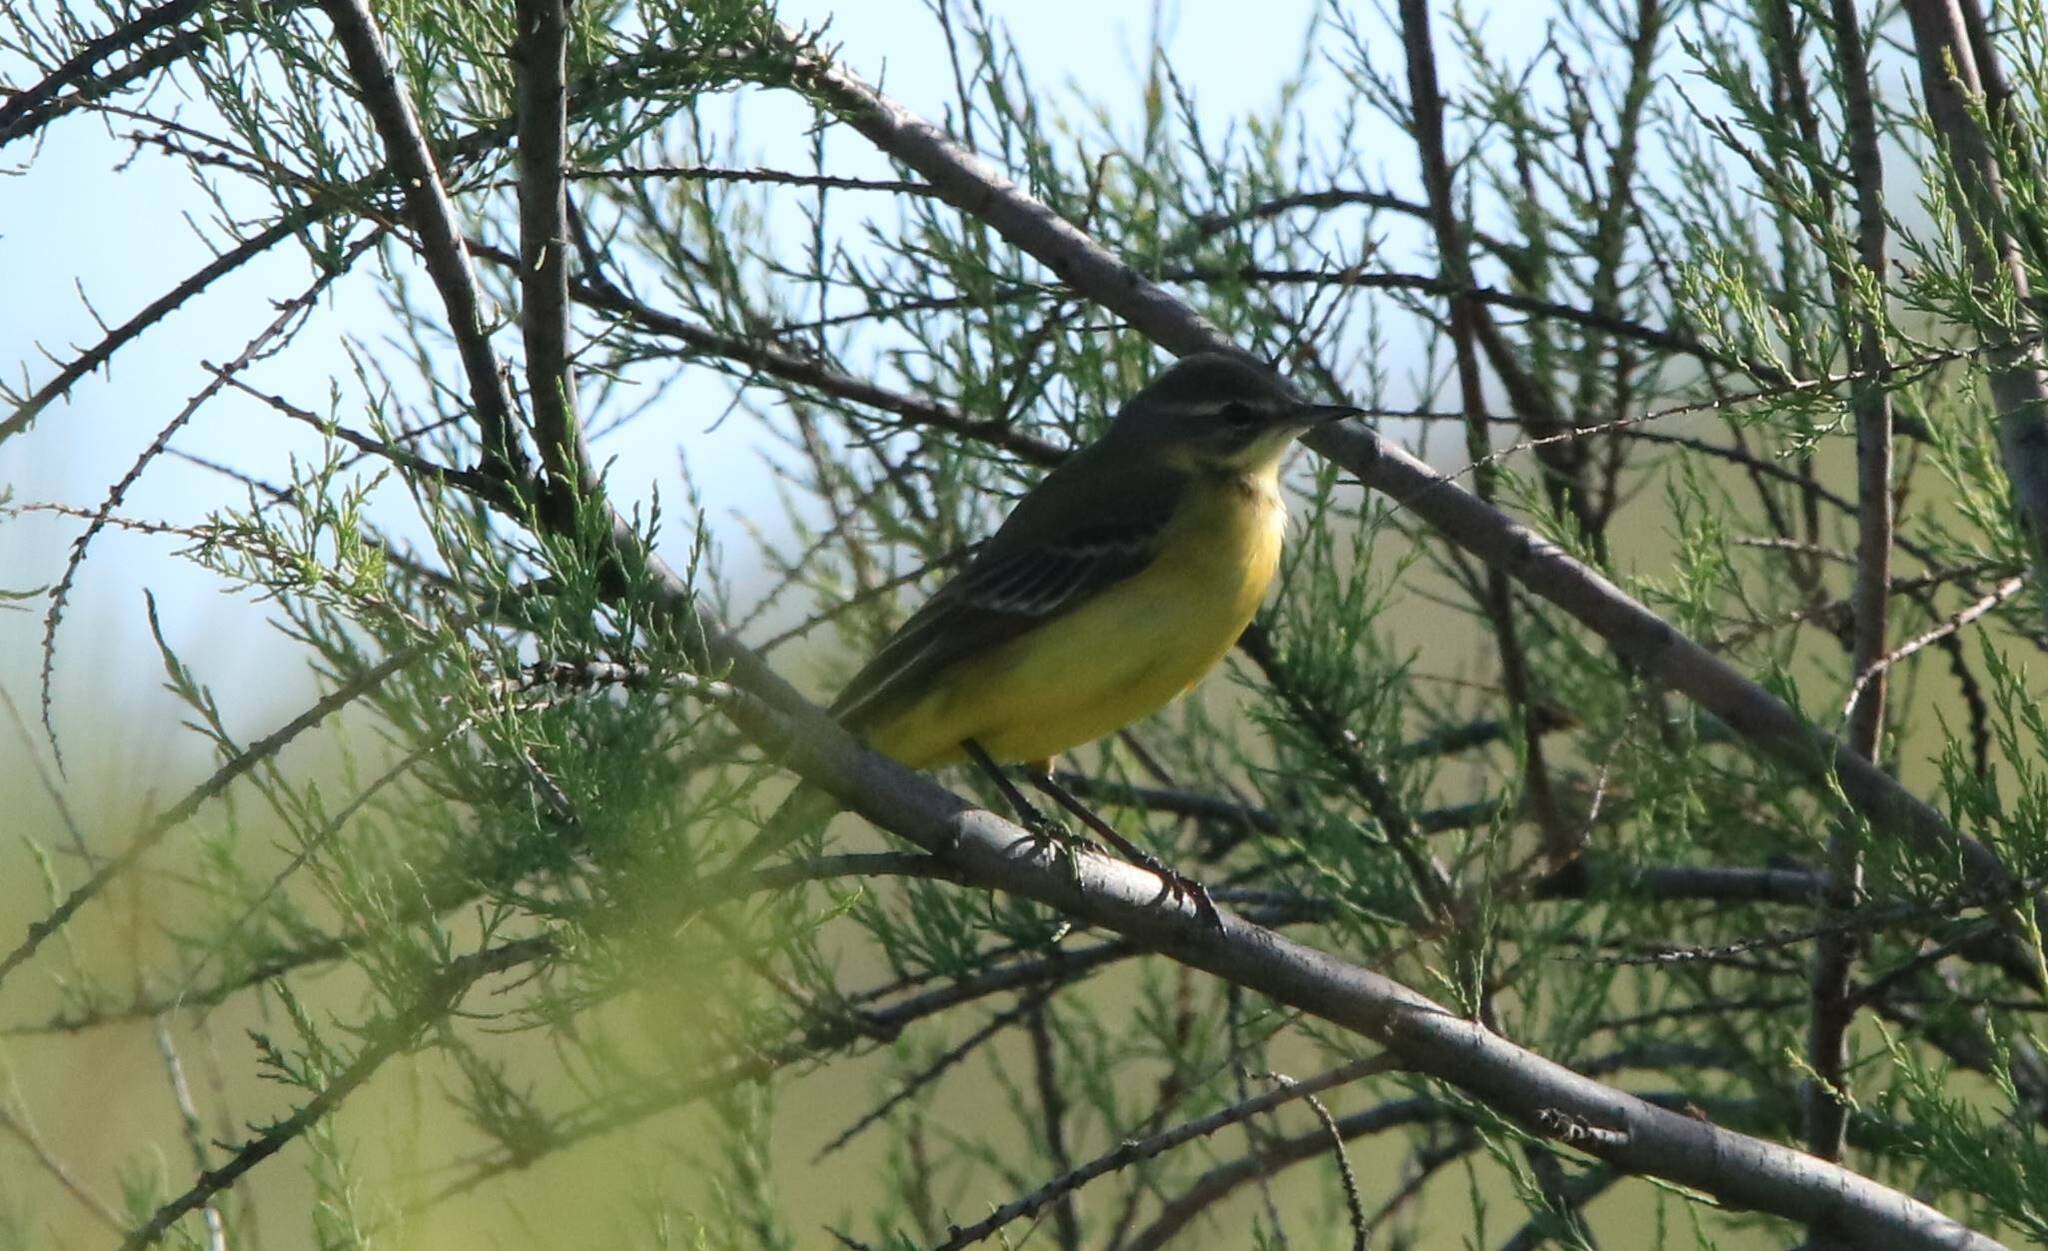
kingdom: Animalia
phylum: Chordata
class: Aves
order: Passeriformes
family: Motacillidae
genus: Motacilla
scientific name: Motacilla flava
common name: Western yellow wagtail
